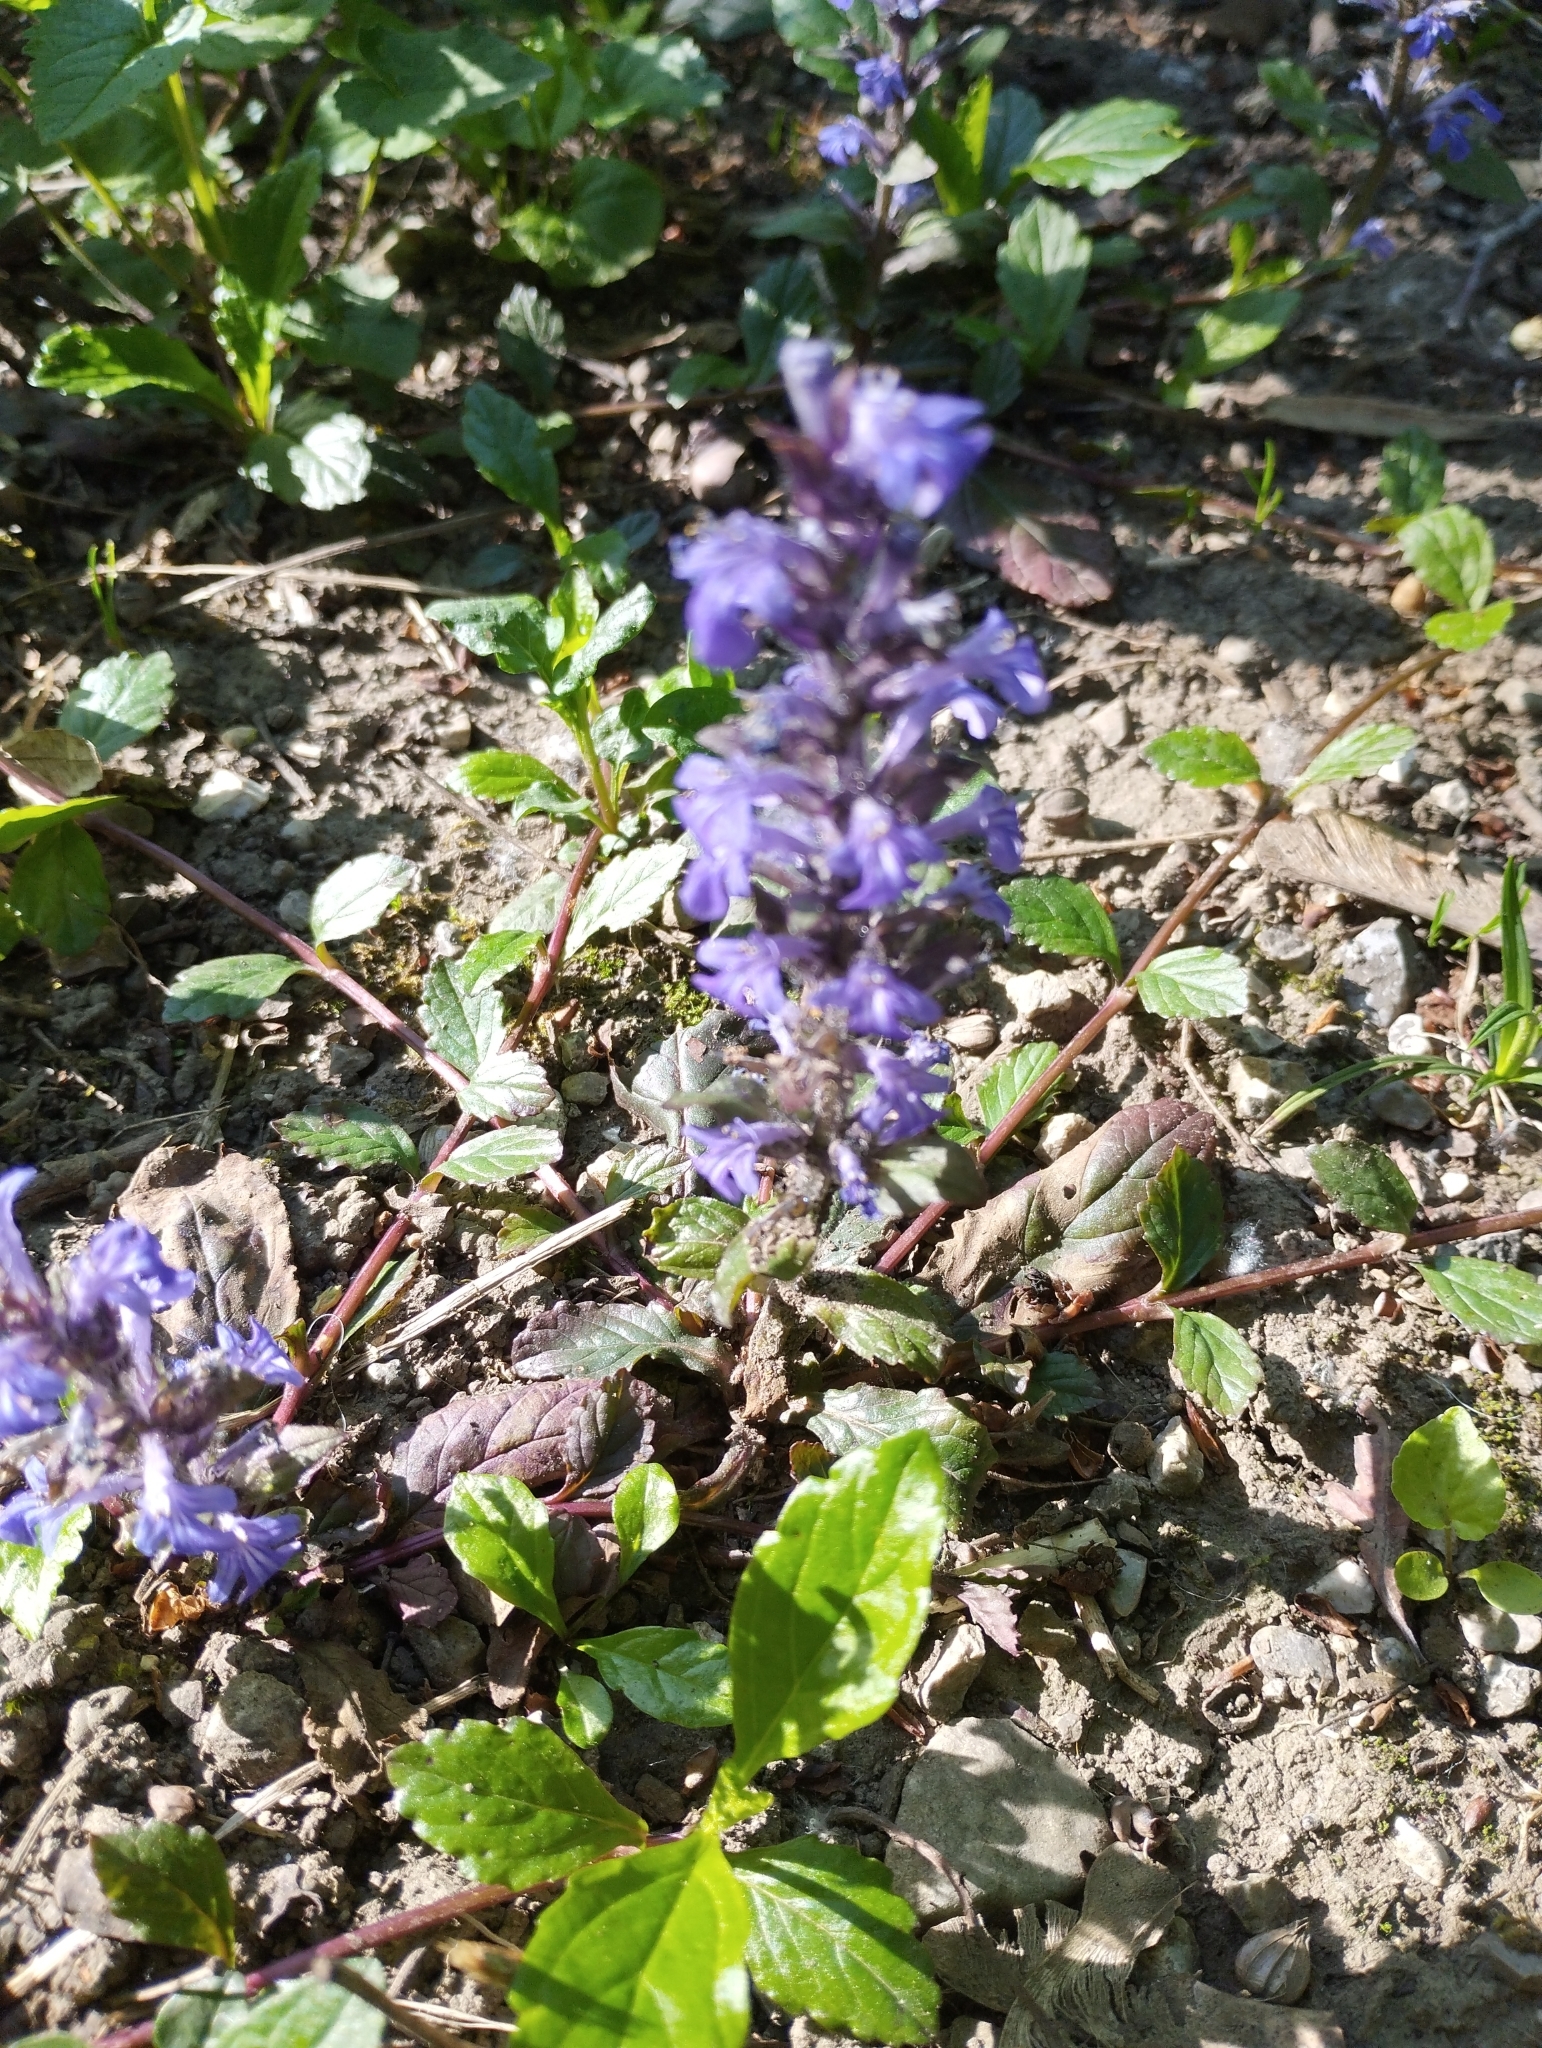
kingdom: Plantae
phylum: Tracheophyta
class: Magnoliopsida
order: Lamiales
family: Lamiaceae
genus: Ajuga
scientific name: Ajuga reptans
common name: Bugle
